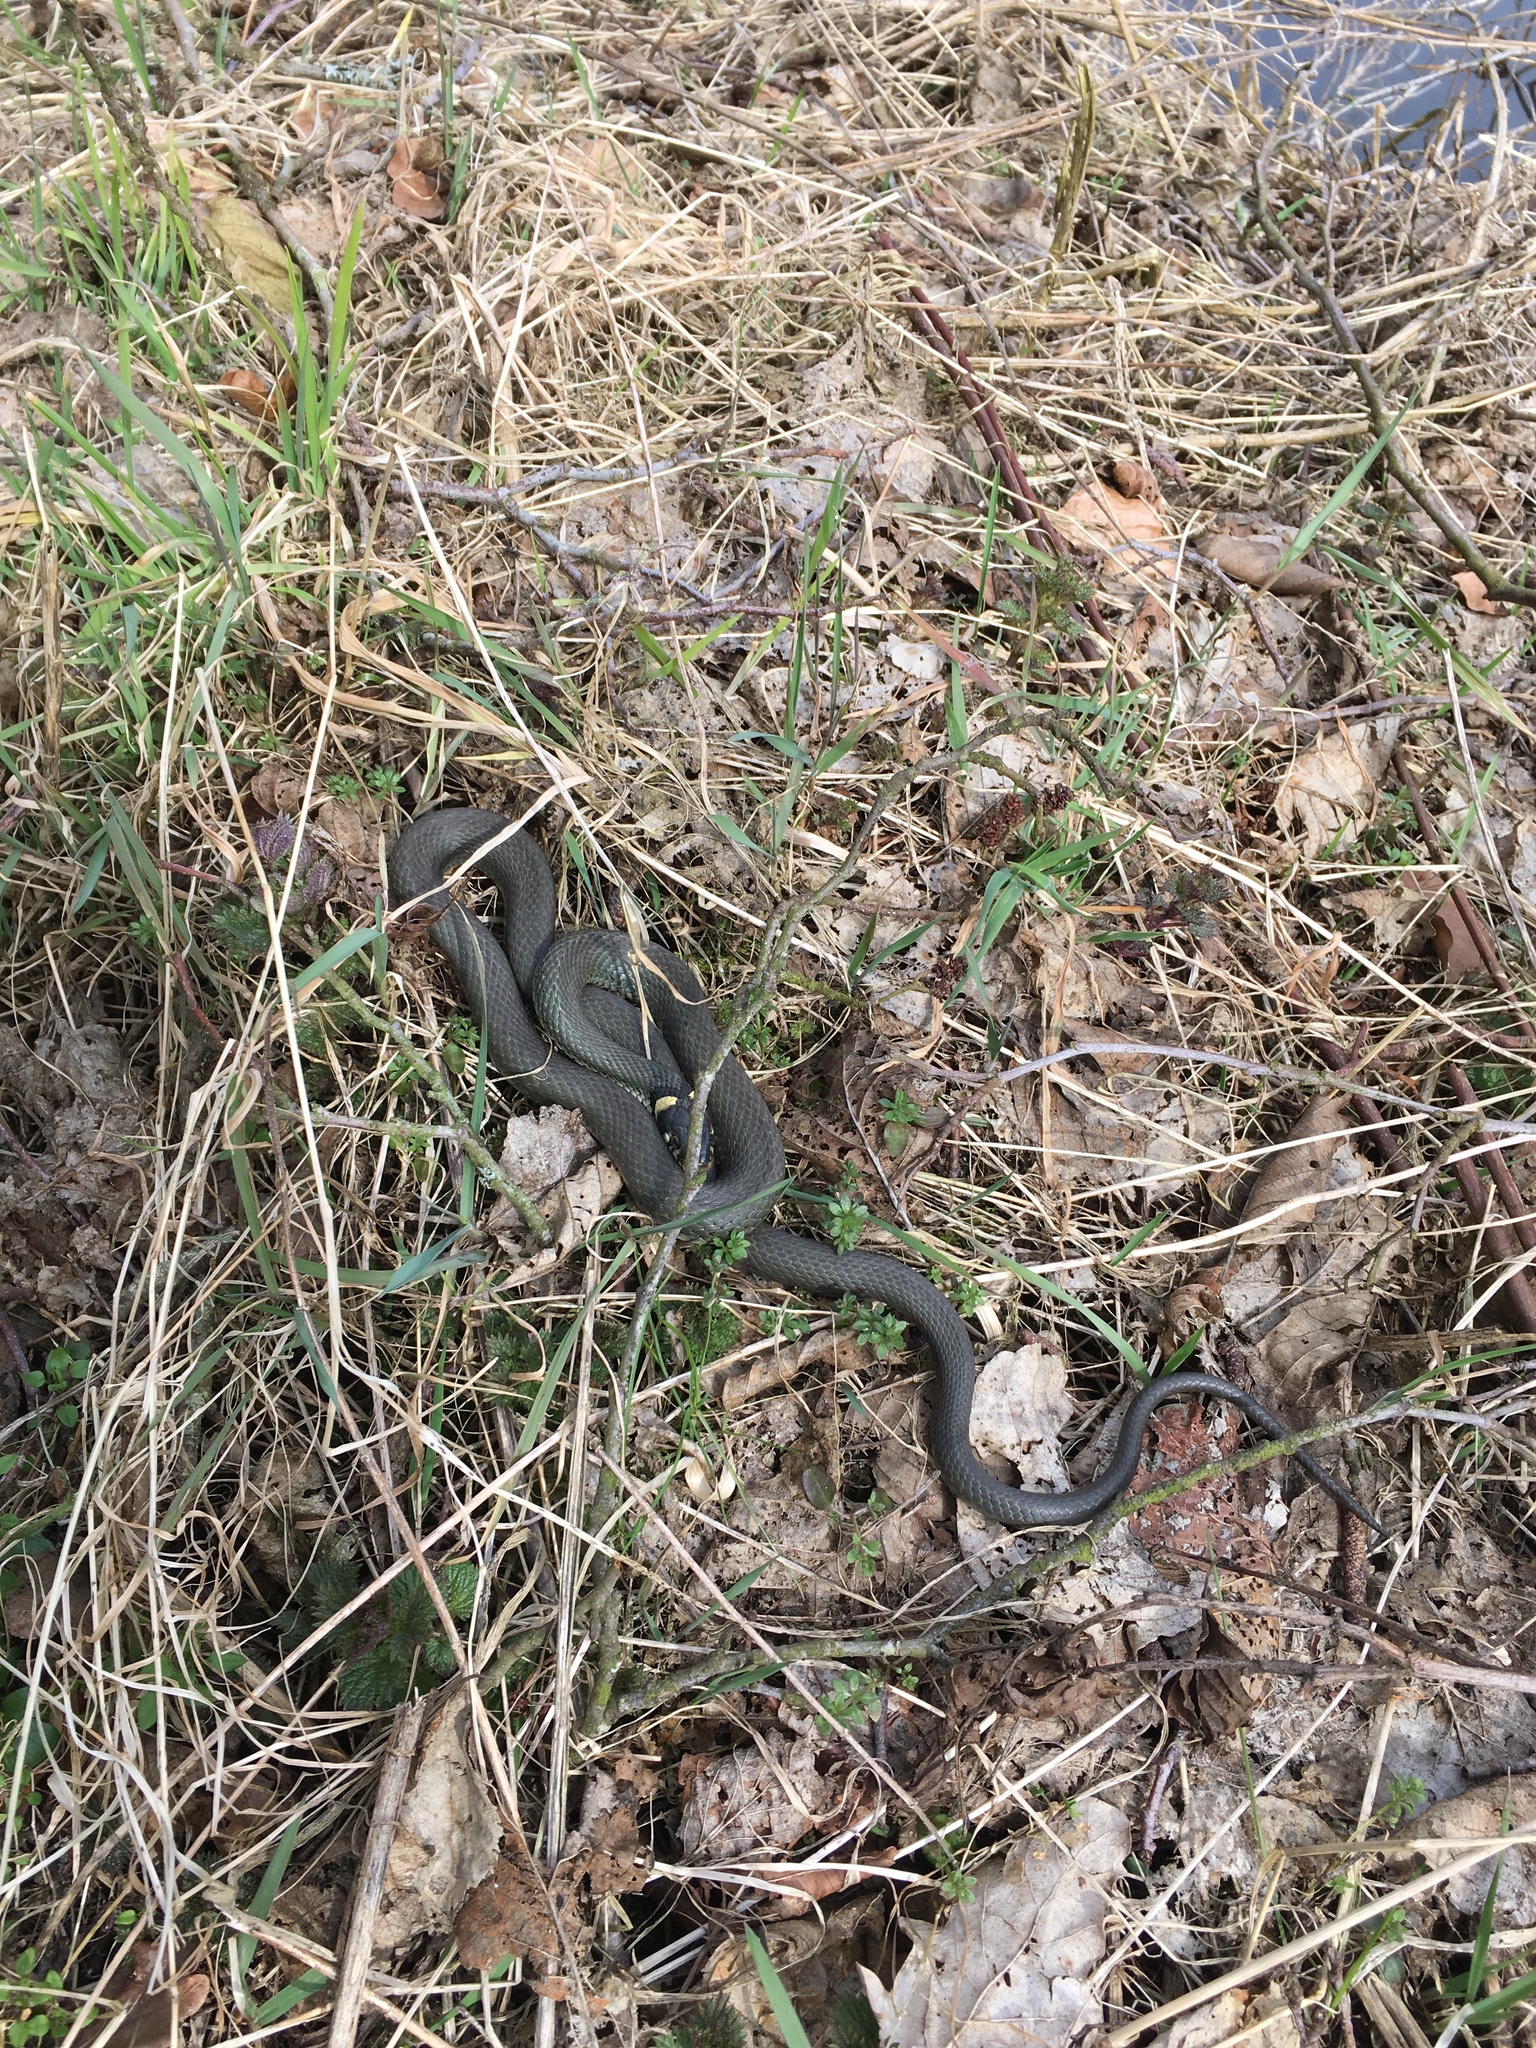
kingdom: Animalia
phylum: Chordata
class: Squamata
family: Colubridae
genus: Natrix
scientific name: Natrix natrix
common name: Grass snake
